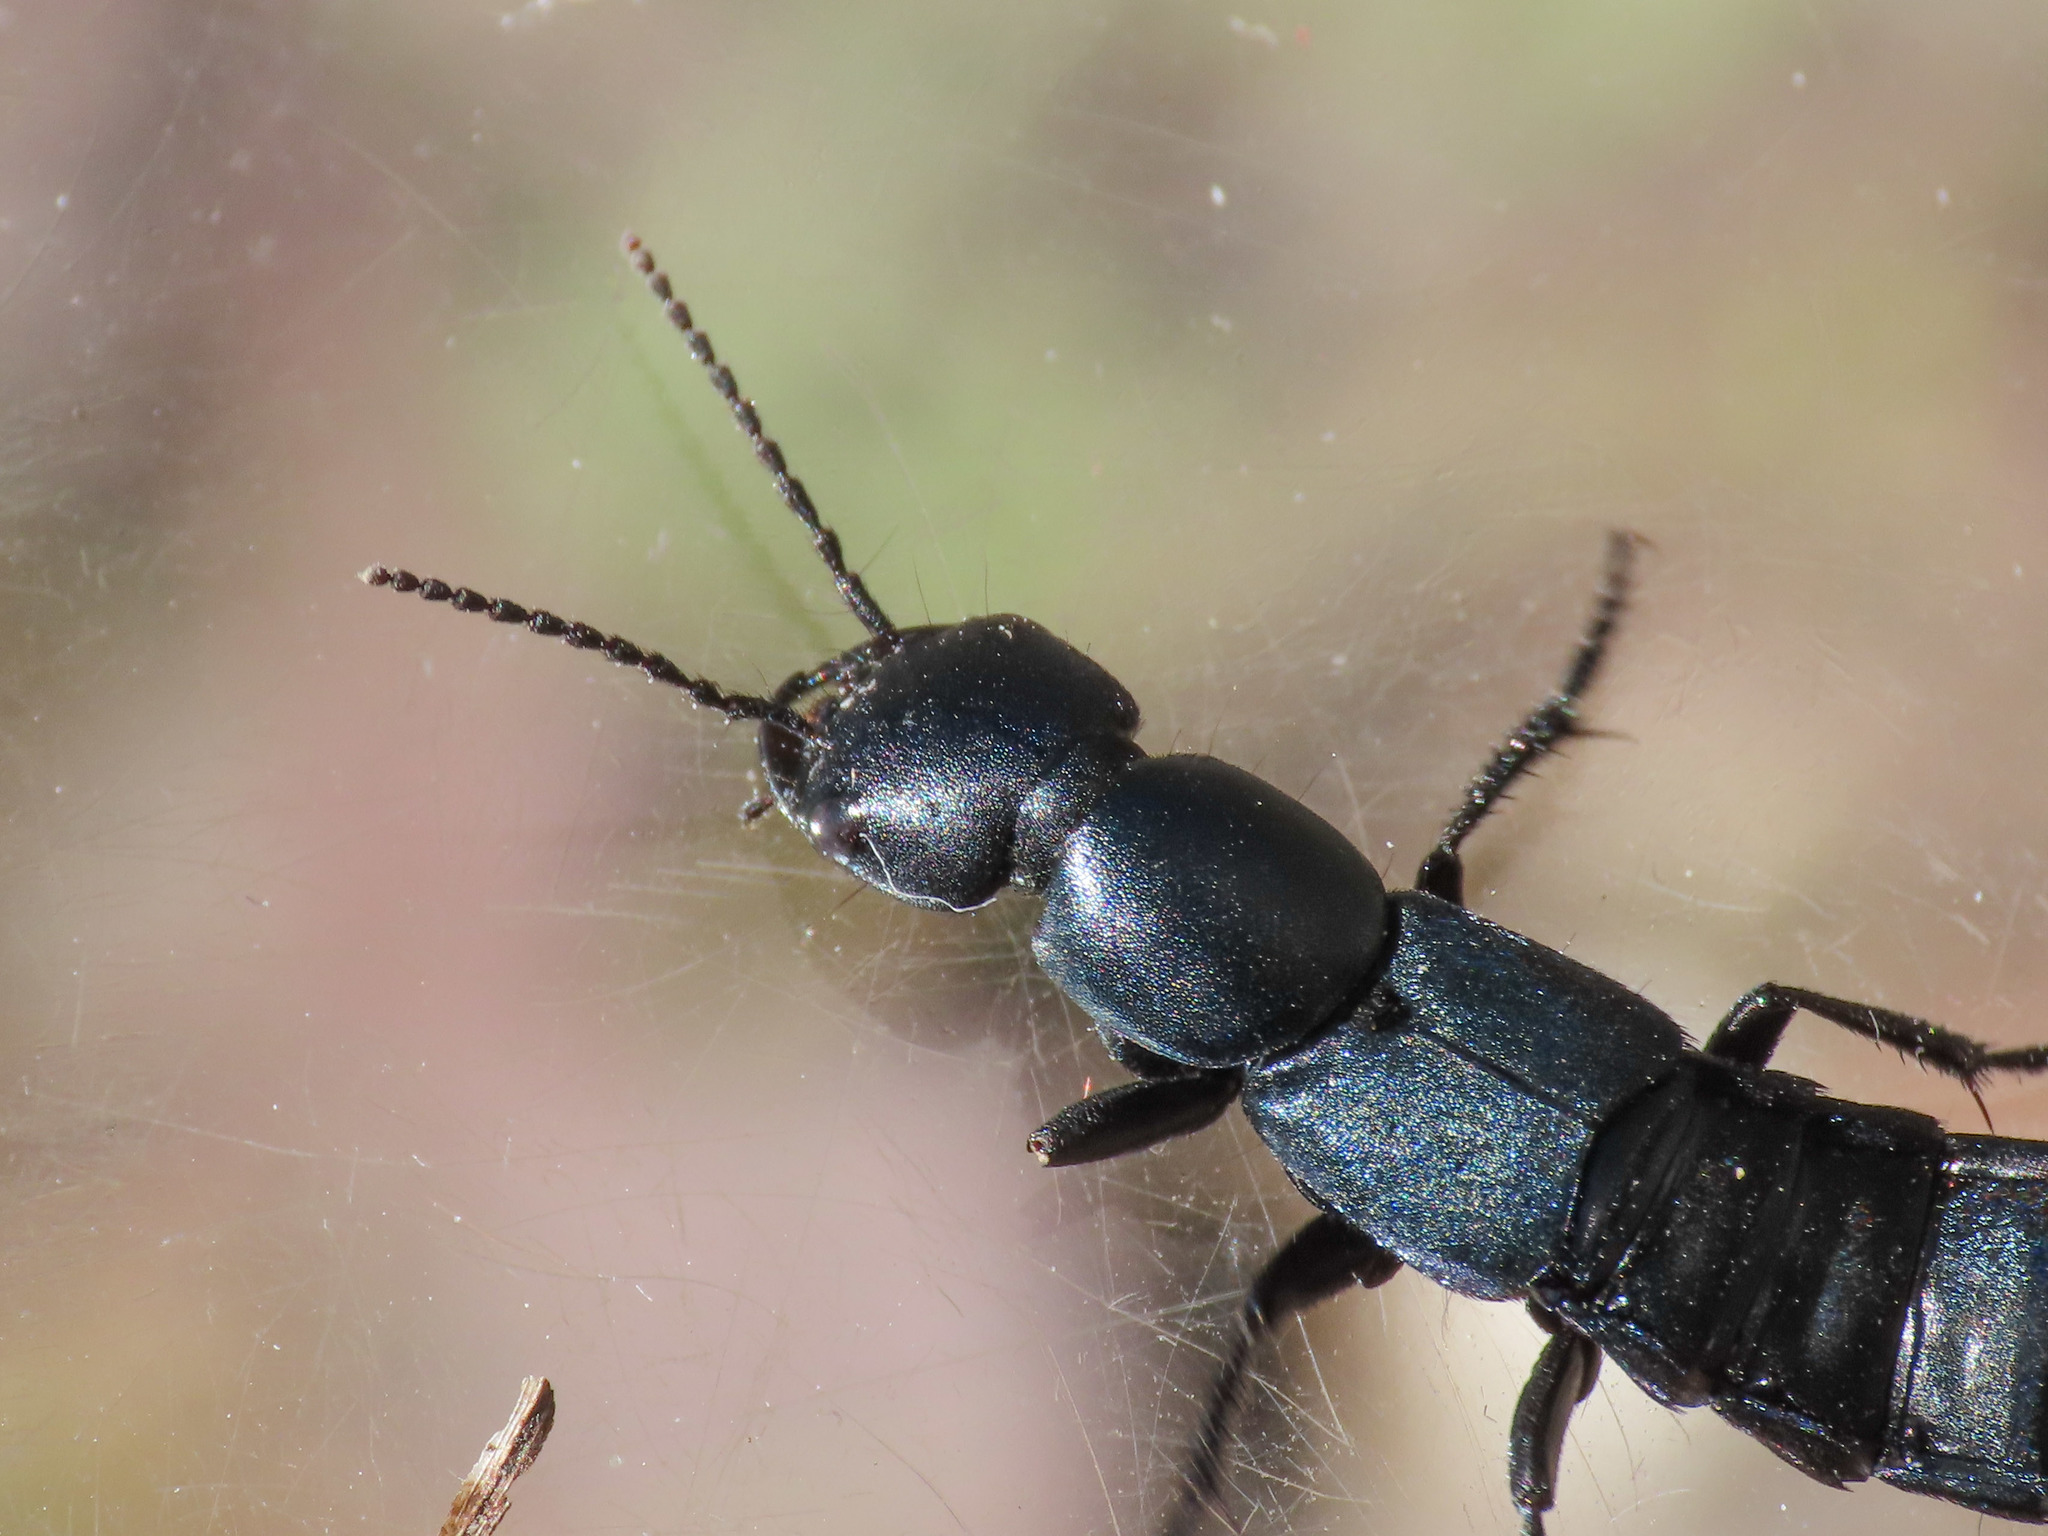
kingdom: Animalia
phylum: Arthropoda
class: Insecta
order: Coleoptera
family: Staphylinidae
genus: Ocypus
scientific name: Ocypus ophthalmicus
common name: Blue rove-beetle
